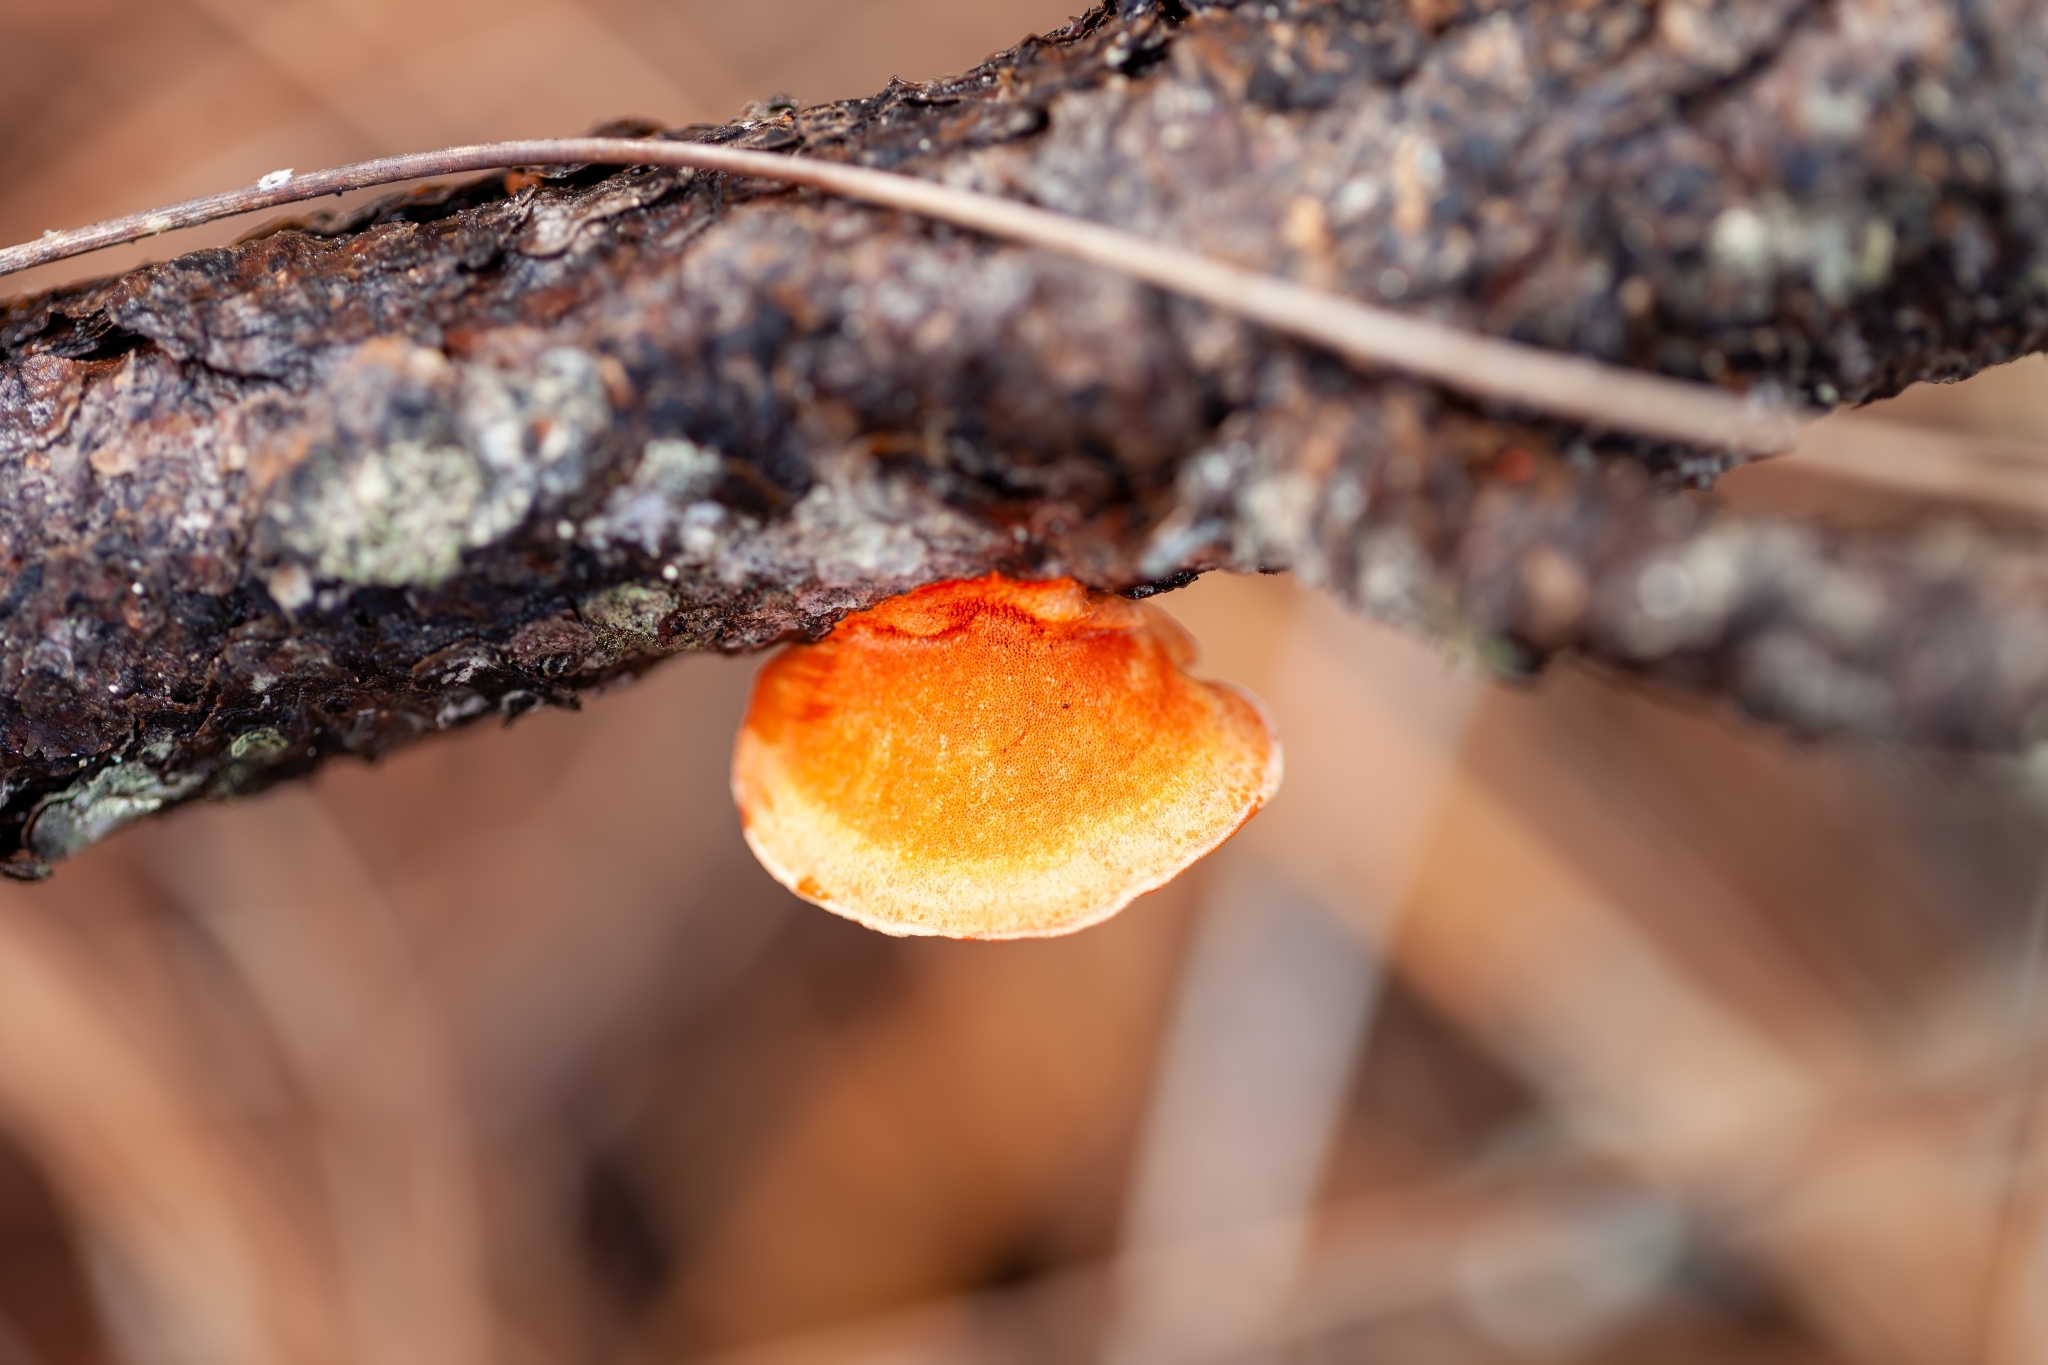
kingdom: Fungi
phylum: Basidiomycota
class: Agaricomycetes
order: Polyporales
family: Polyporaceae
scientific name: Polyporaceae
